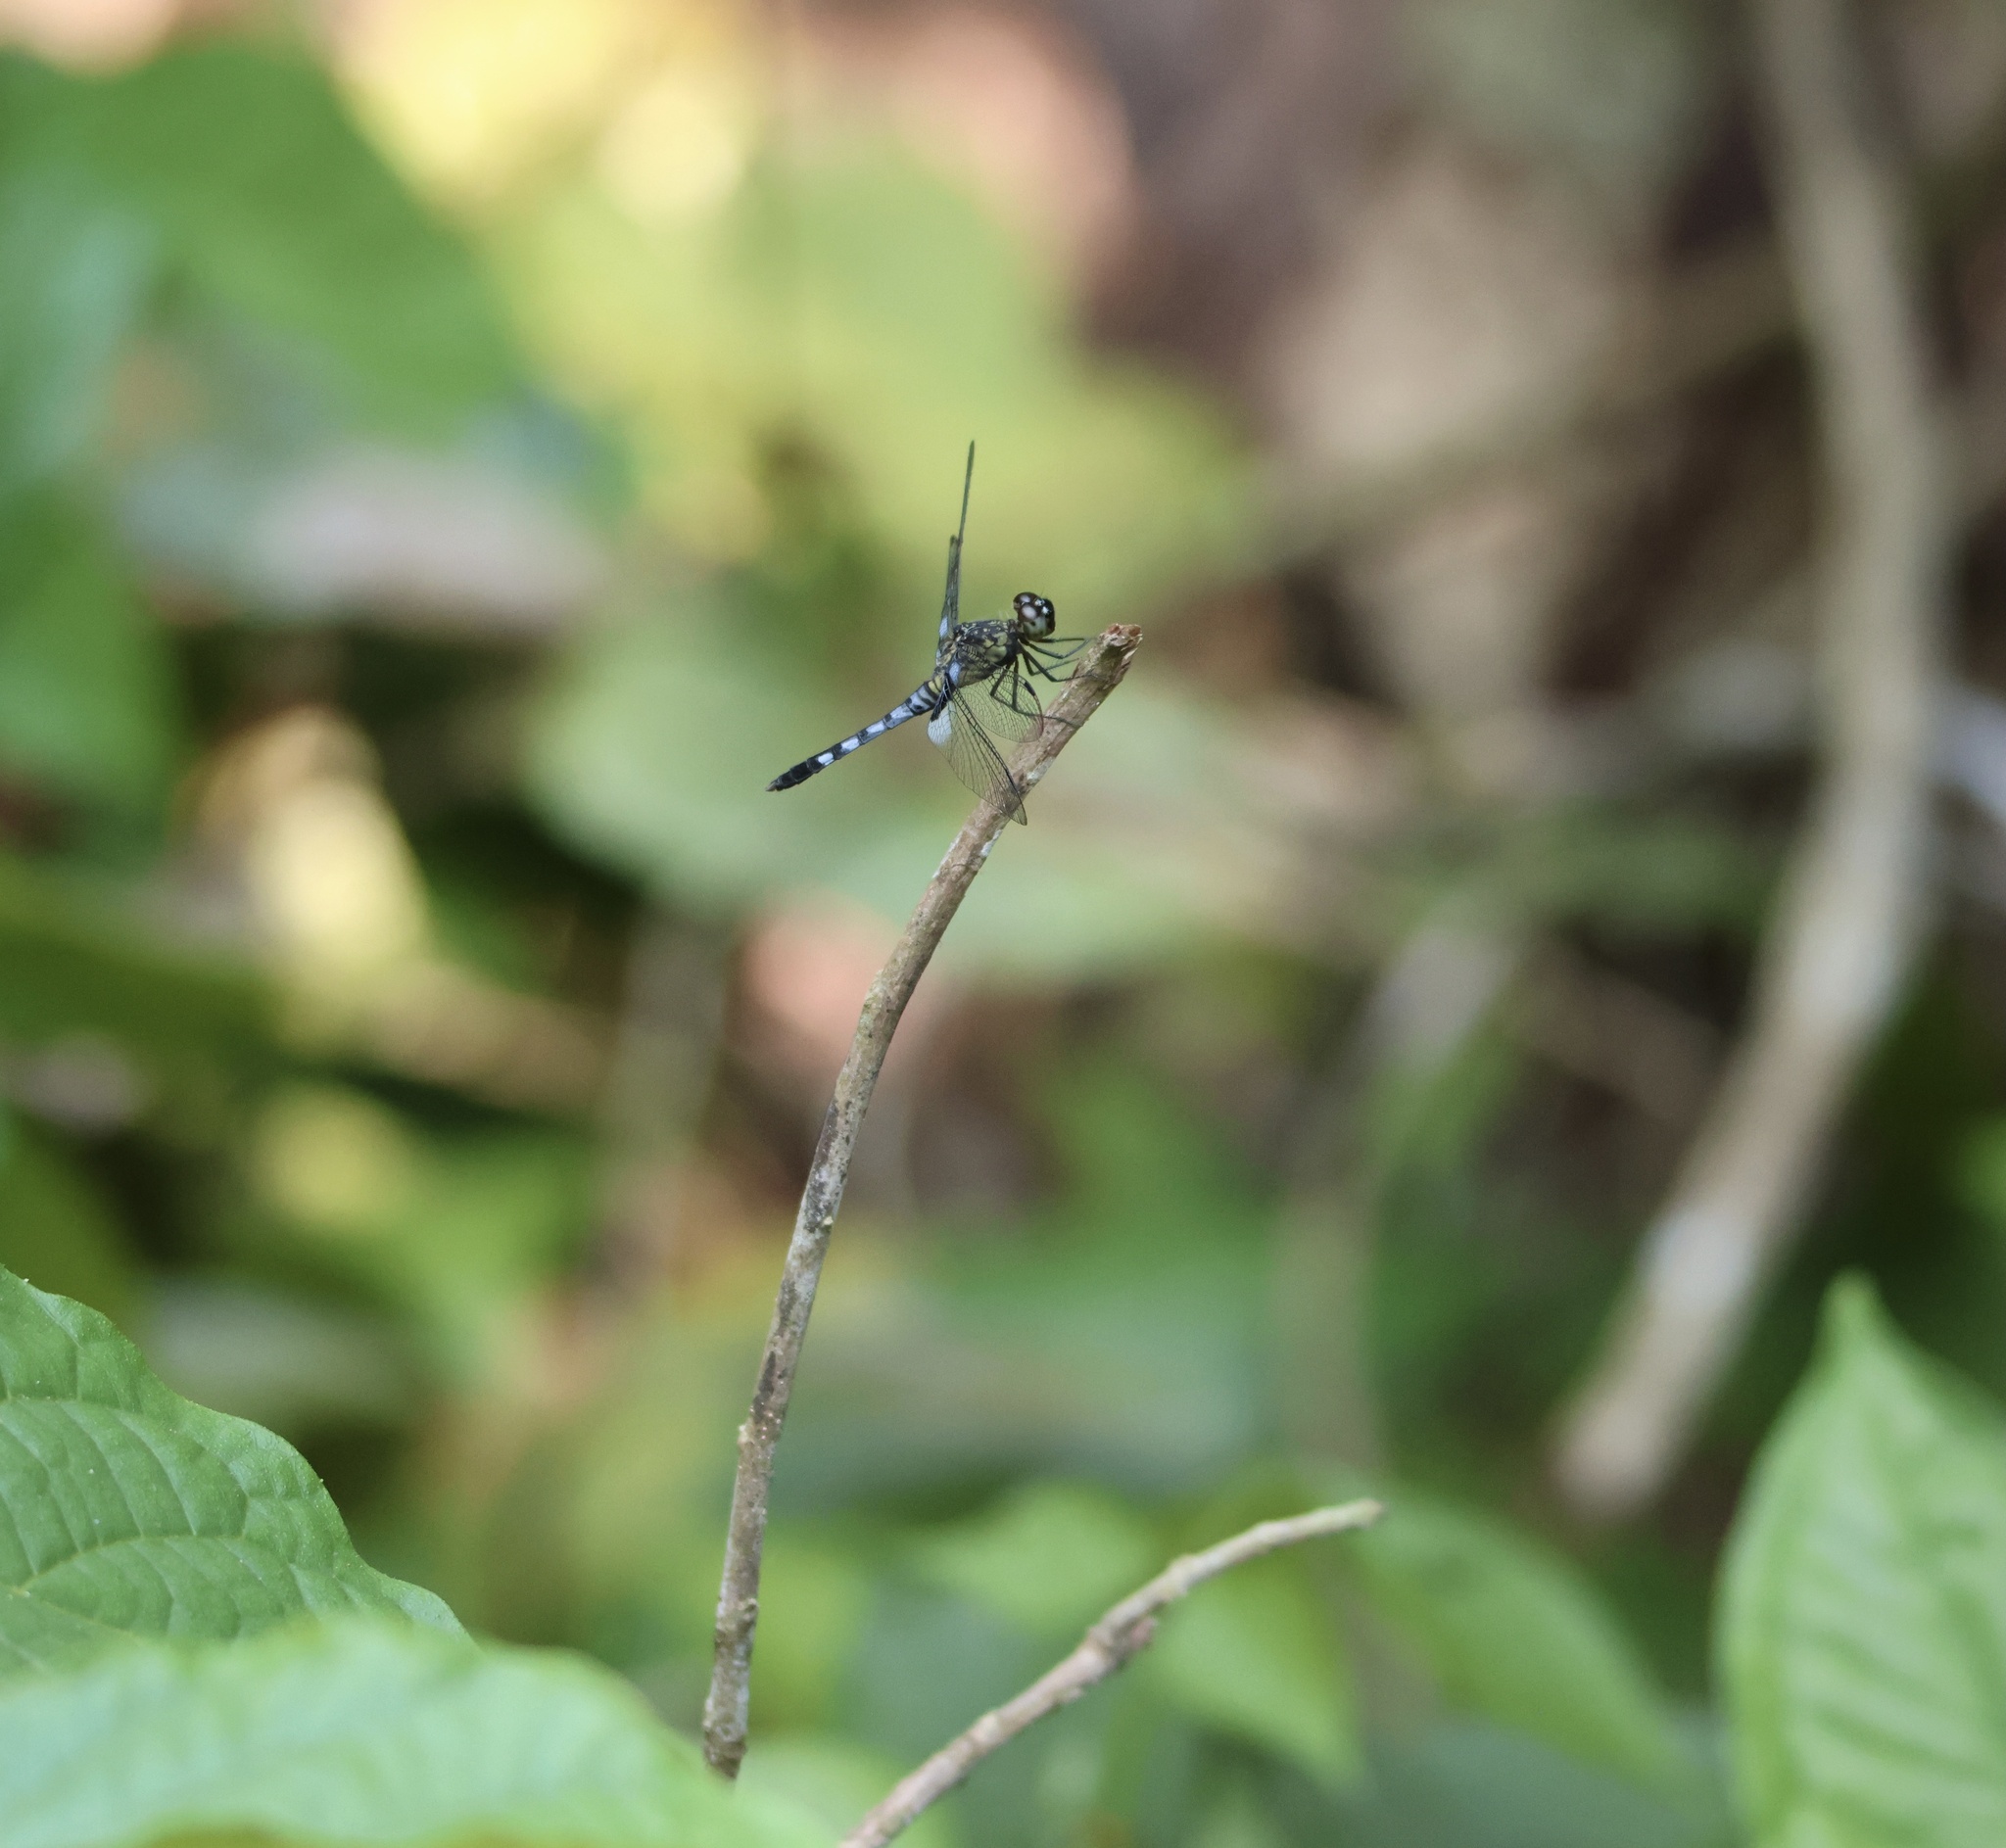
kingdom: Animalia
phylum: Arthropoda
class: Insecta
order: Odonata
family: Libellulidae
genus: Erythrodiplax
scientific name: Erythrodiplax kimminsi
